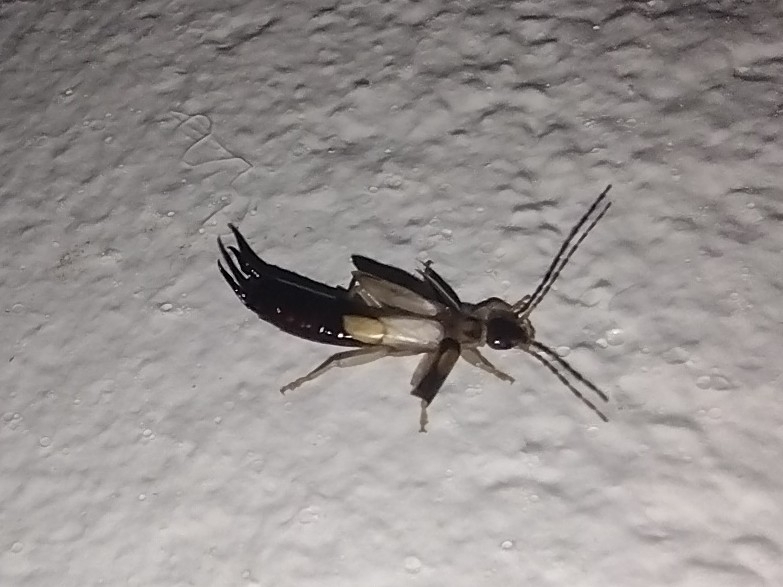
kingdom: Animalia
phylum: Arthropoda
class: Insecta
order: Dermaptera
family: Forficulidae
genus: Doru
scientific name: Doru albipes
